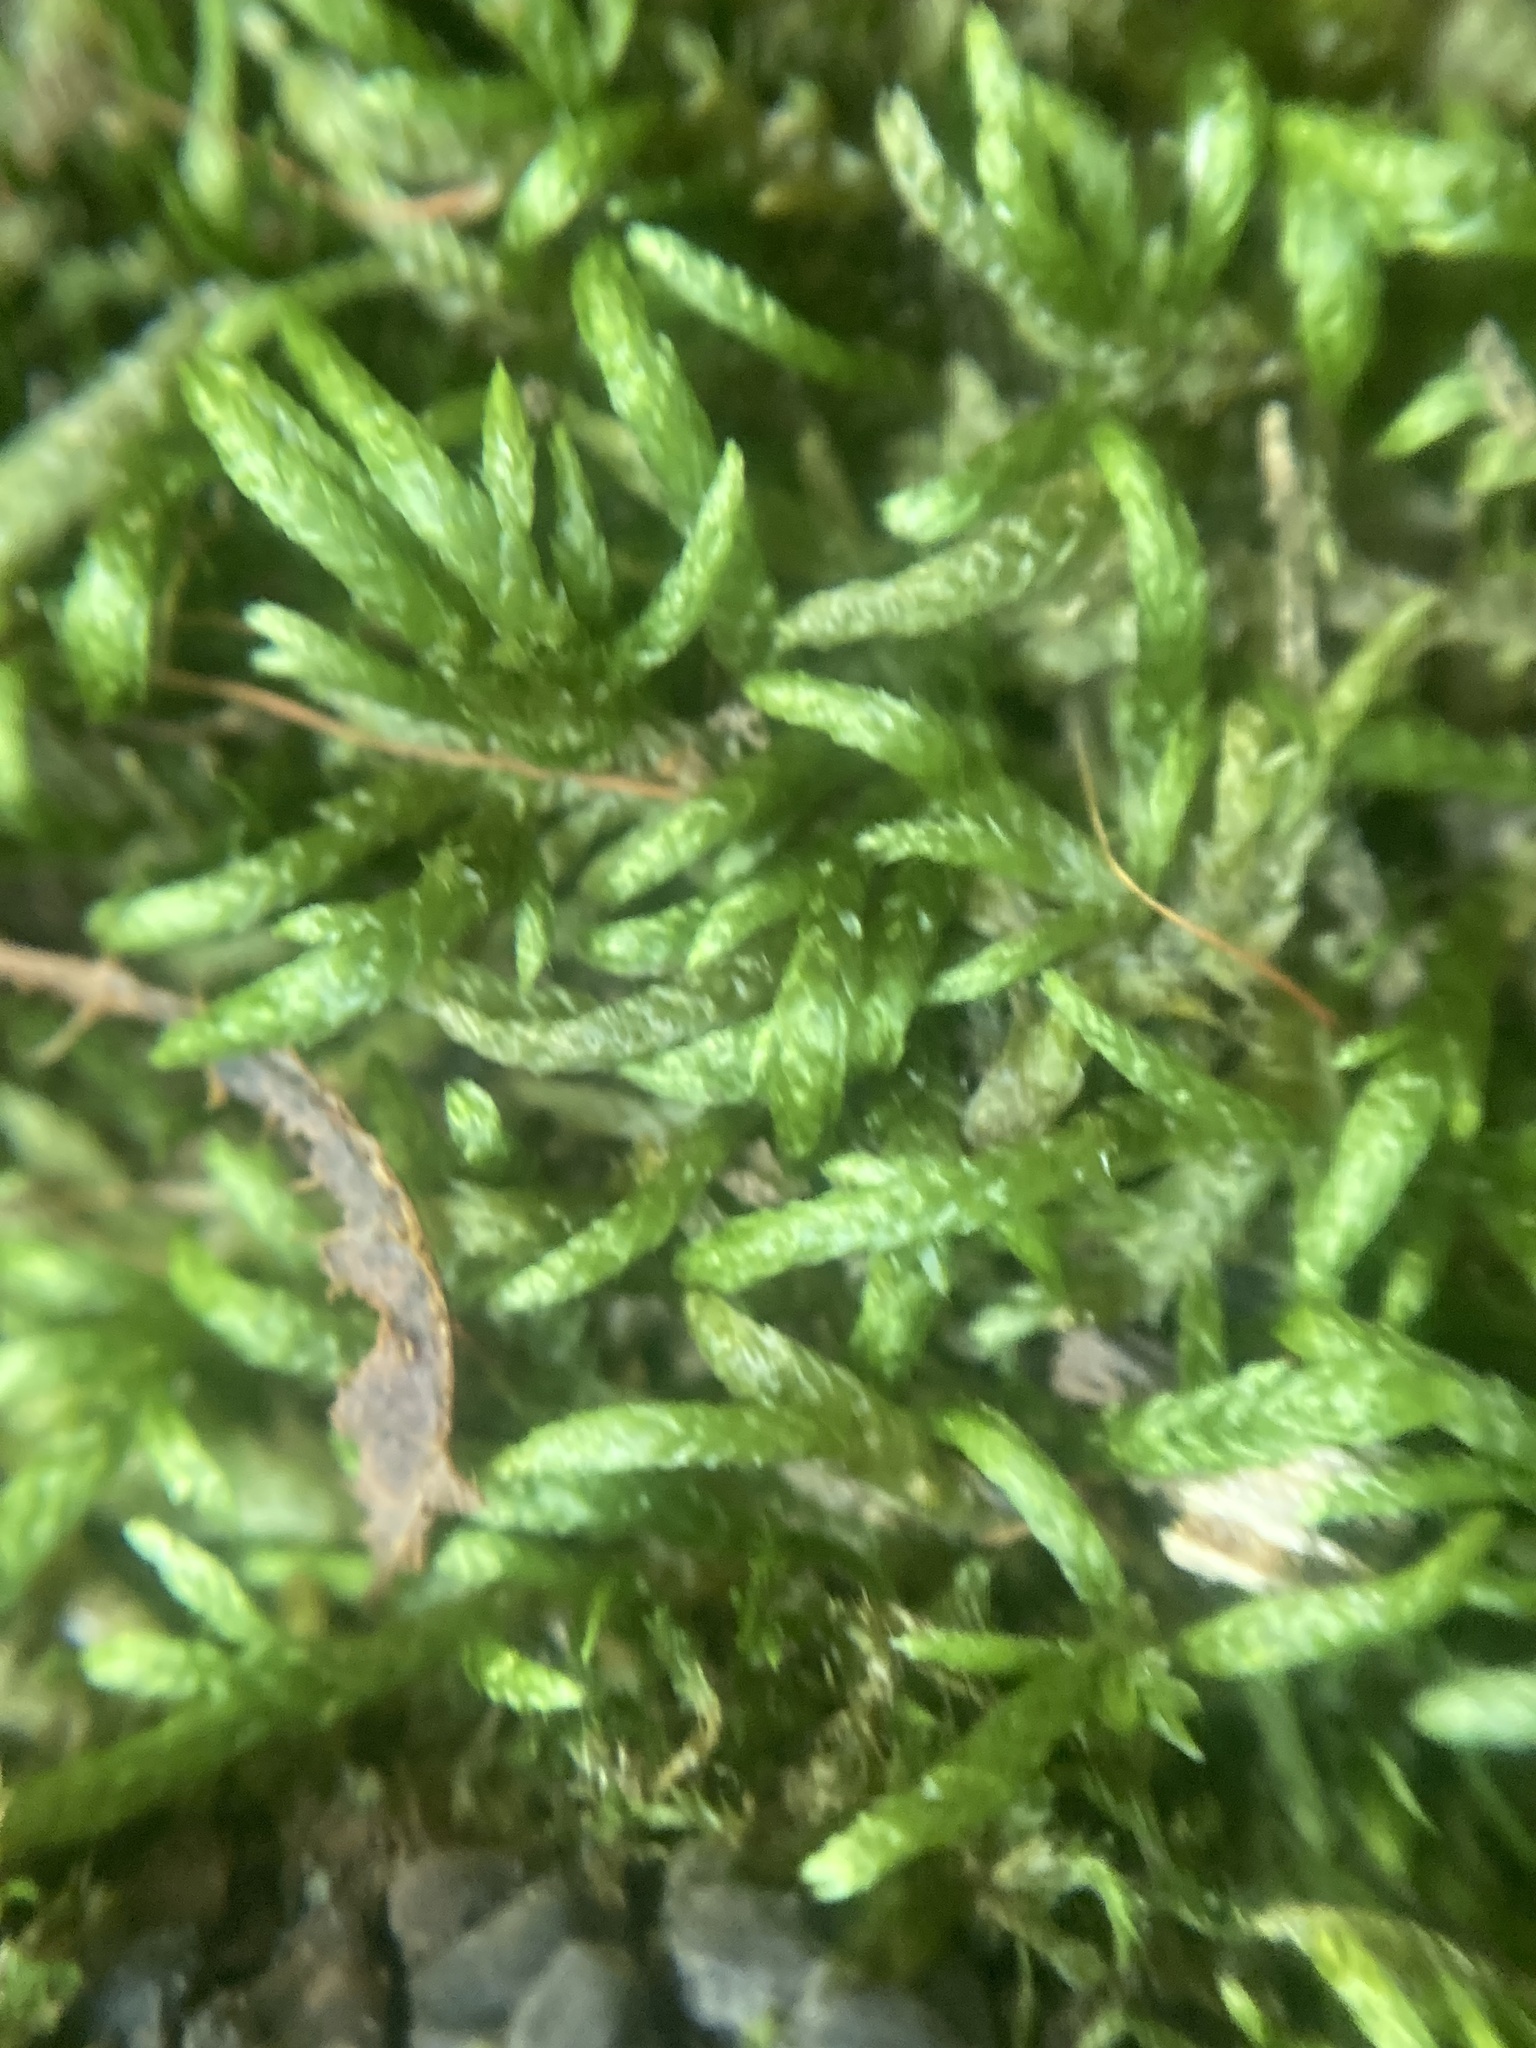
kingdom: Plantae
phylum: Bryophyta
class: Bryopsida
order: Hypnales
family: Entodontaceae
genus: Entodon
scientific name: Entodon cladorrhizans
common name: Flat-stemmed entodon moss
